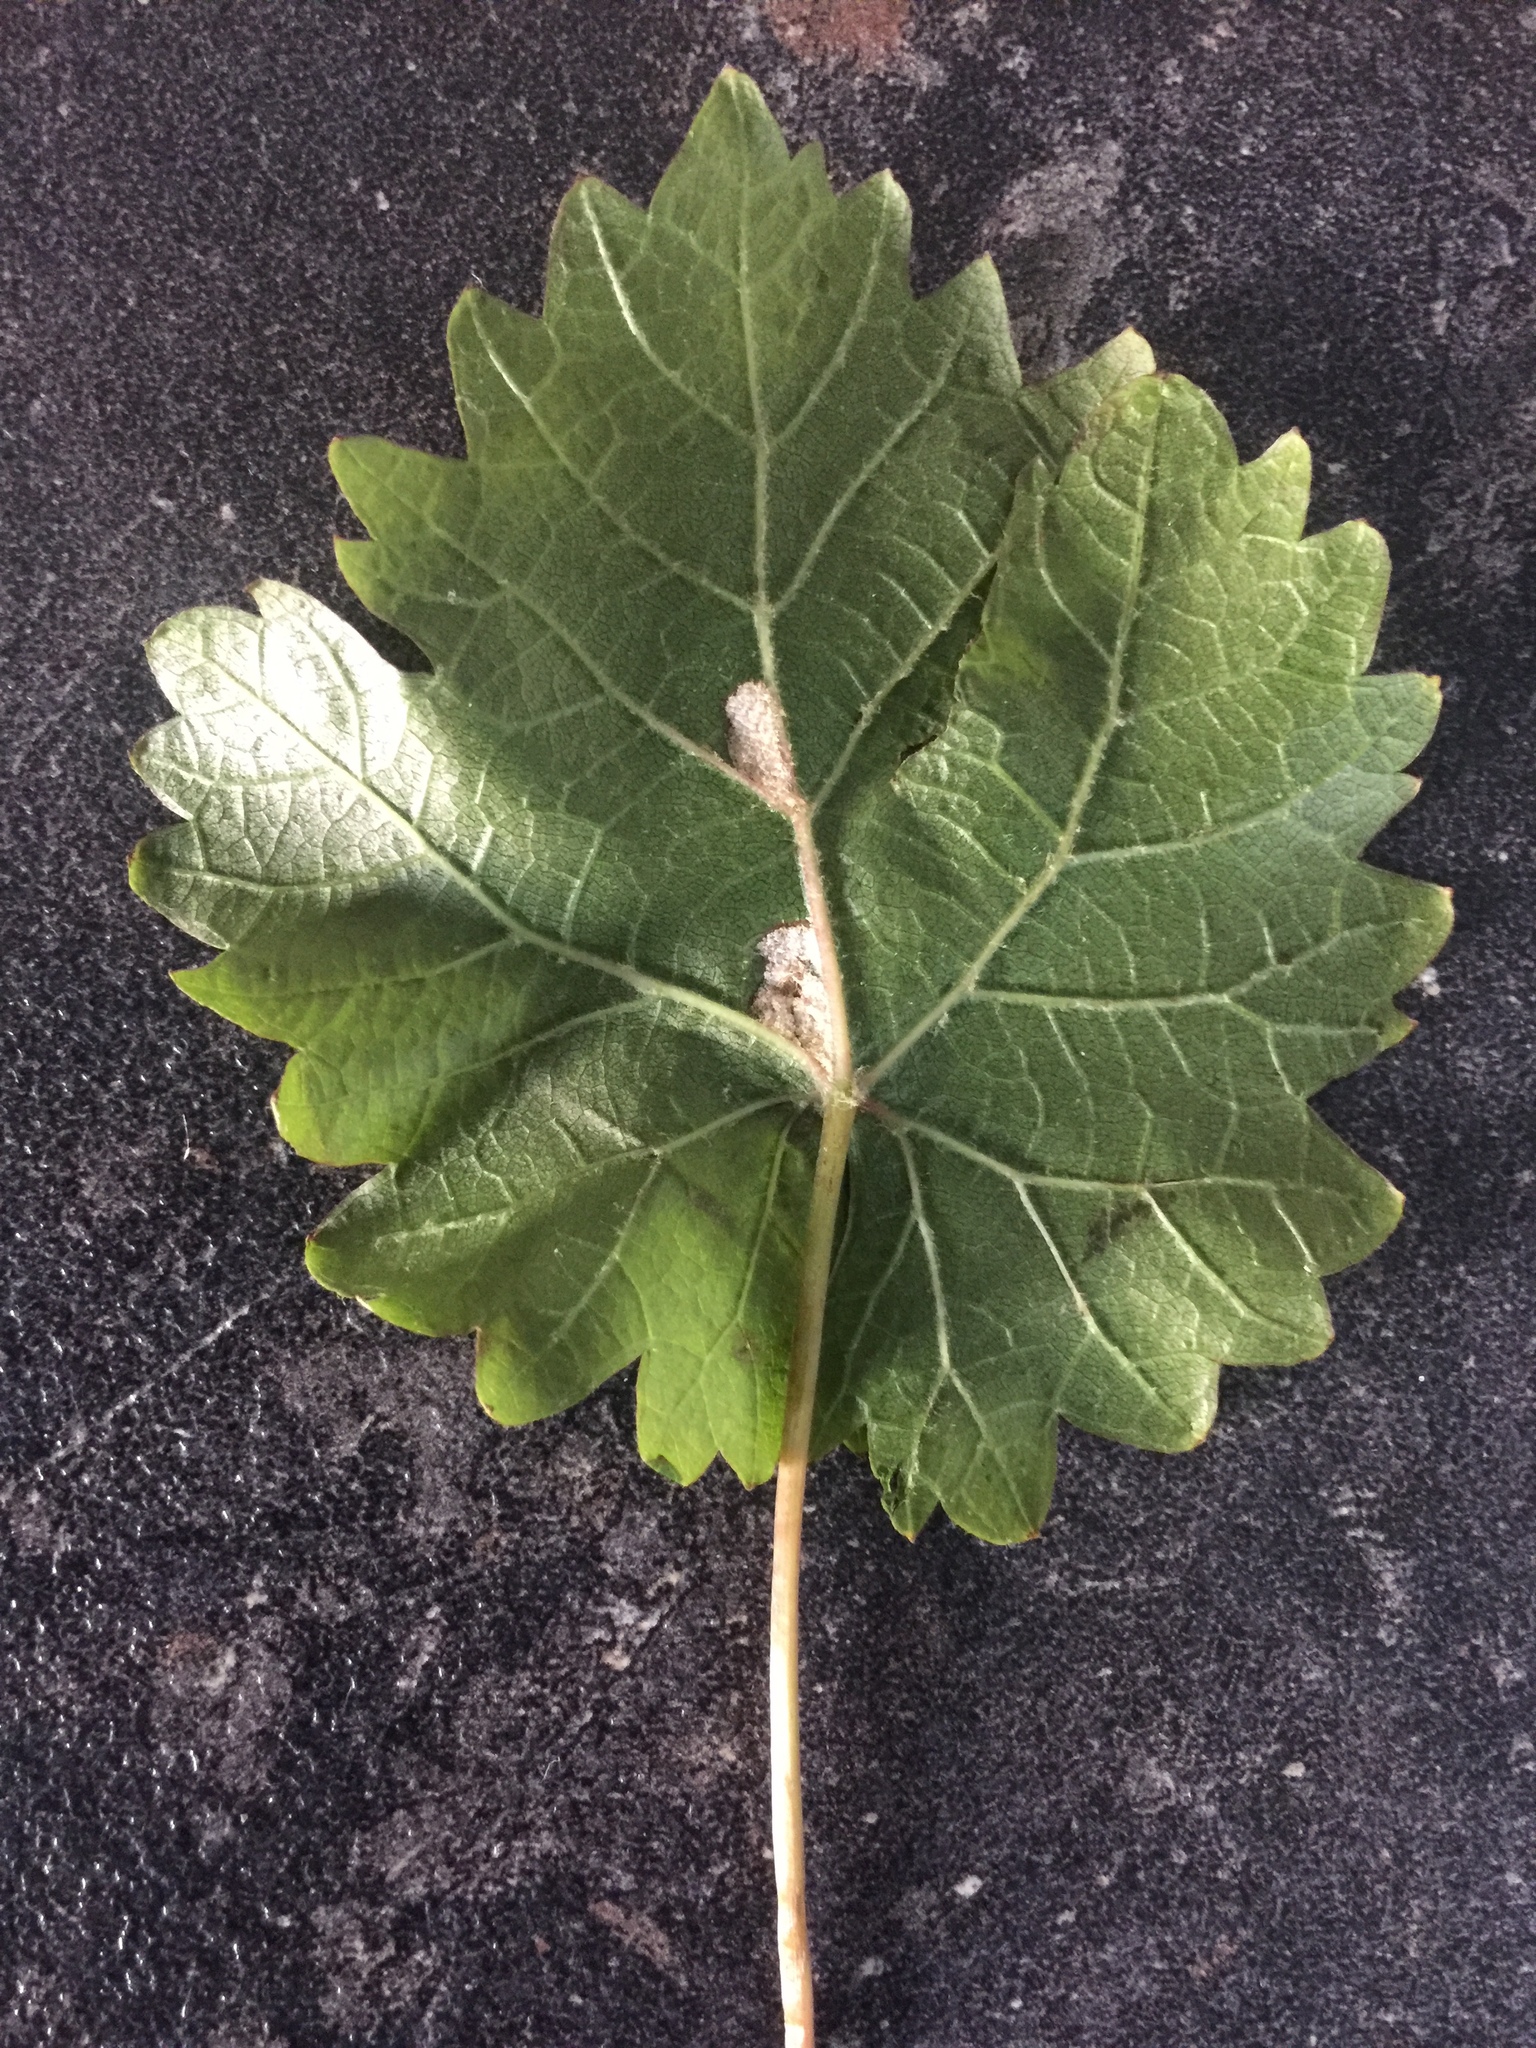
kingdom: Animalia
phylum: Arthropoda
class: Arachnida
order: Trombidiformes
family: Eriophyidae
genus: Colomerus
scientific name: Colomerus vitis
